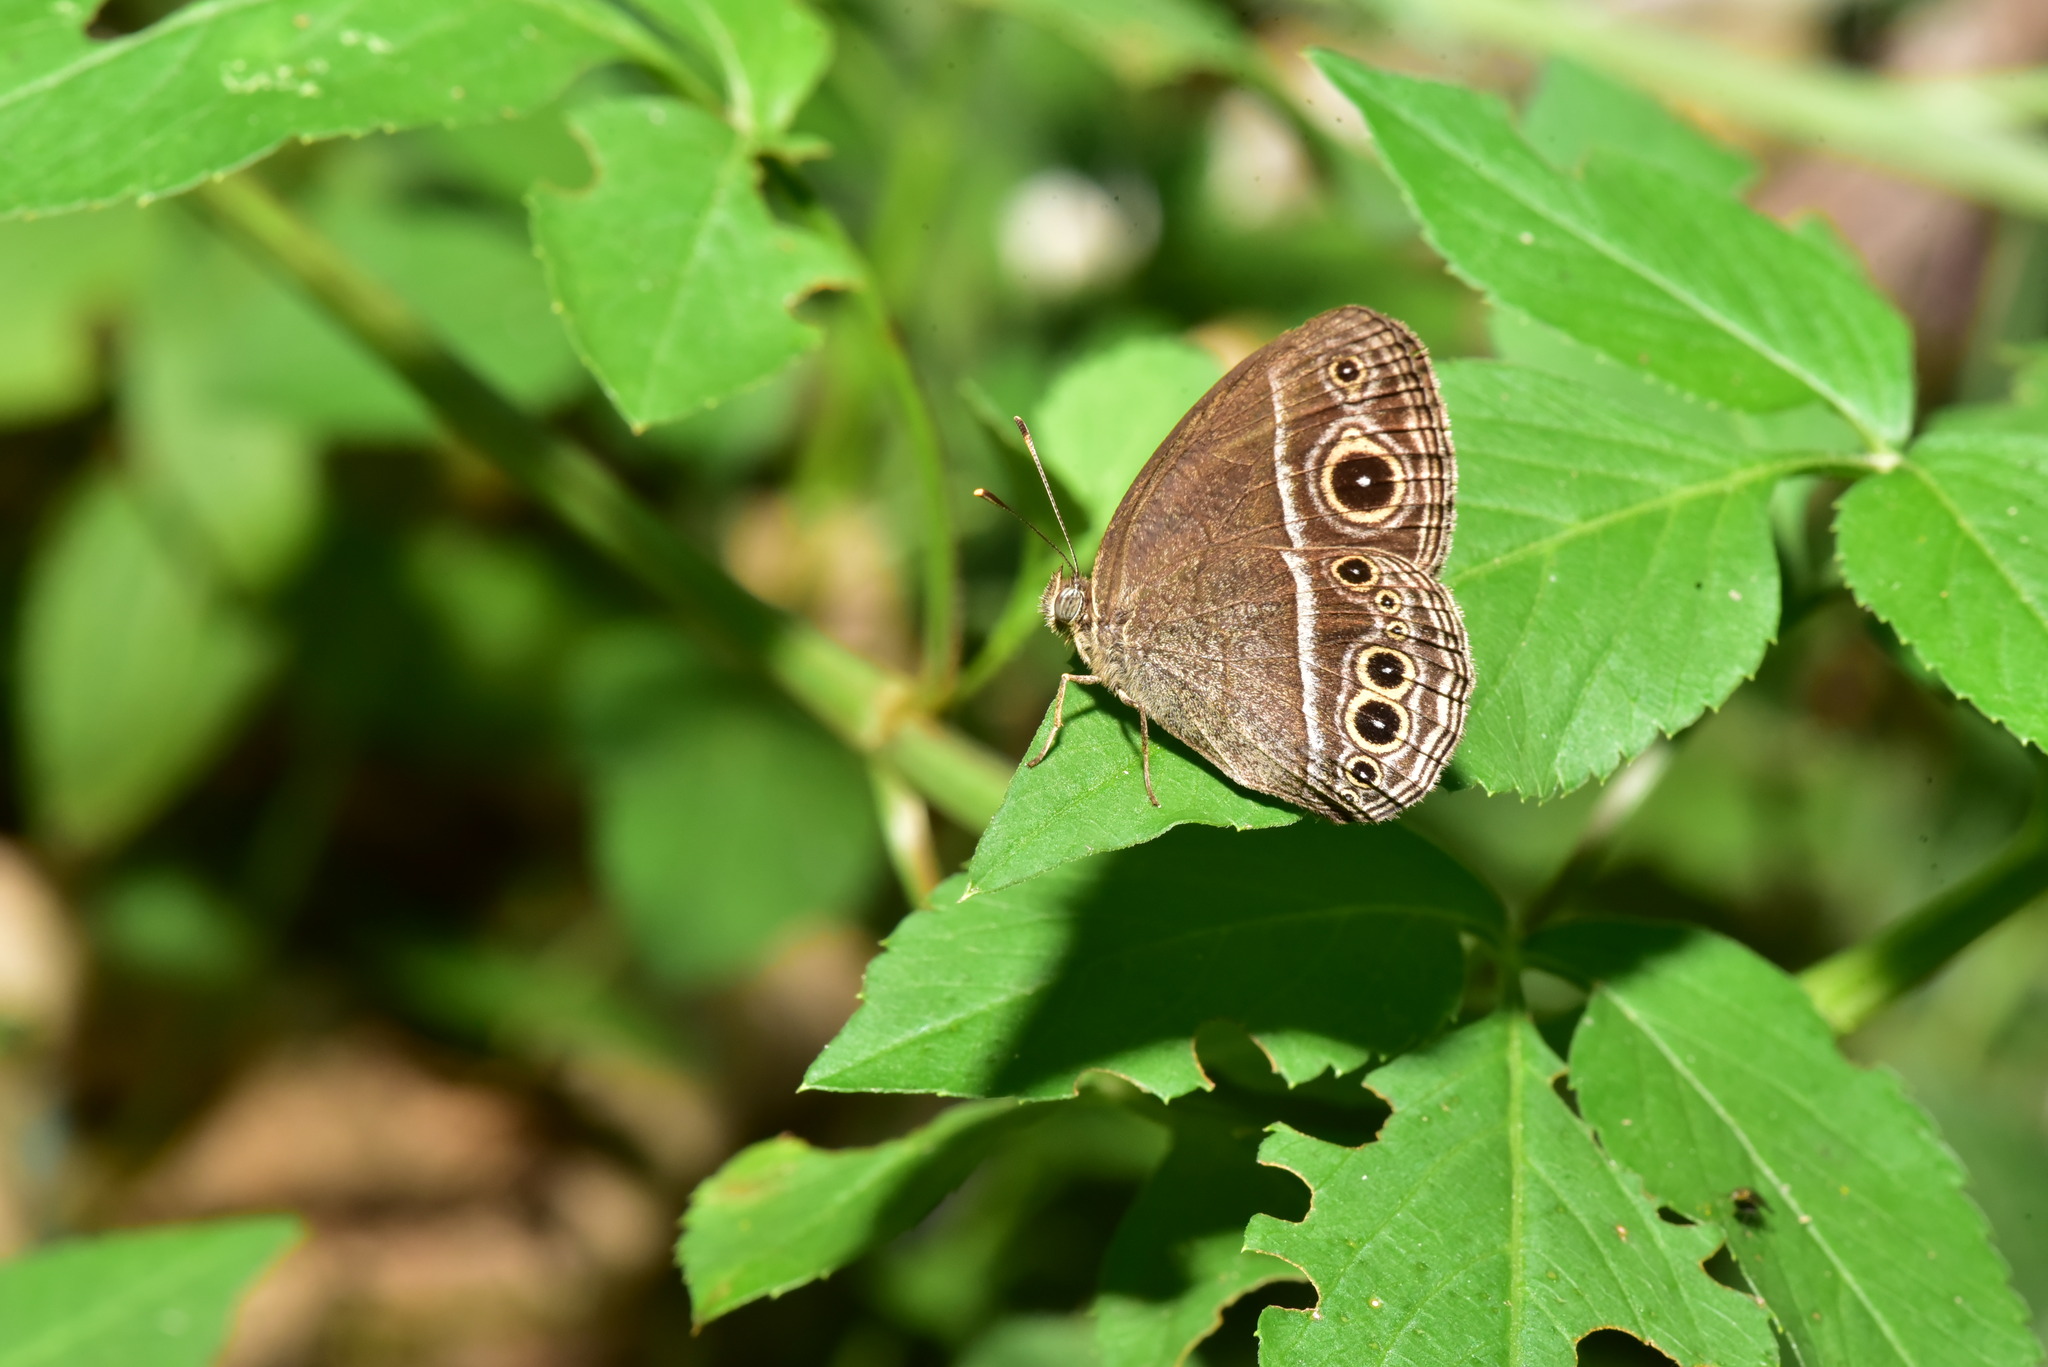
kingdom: Animalia
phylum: Arthropoda
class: Insecta
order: Lepidoptera
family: Nymphalidae
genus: Mycalesis
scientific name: Mycalesis Telinga mara
